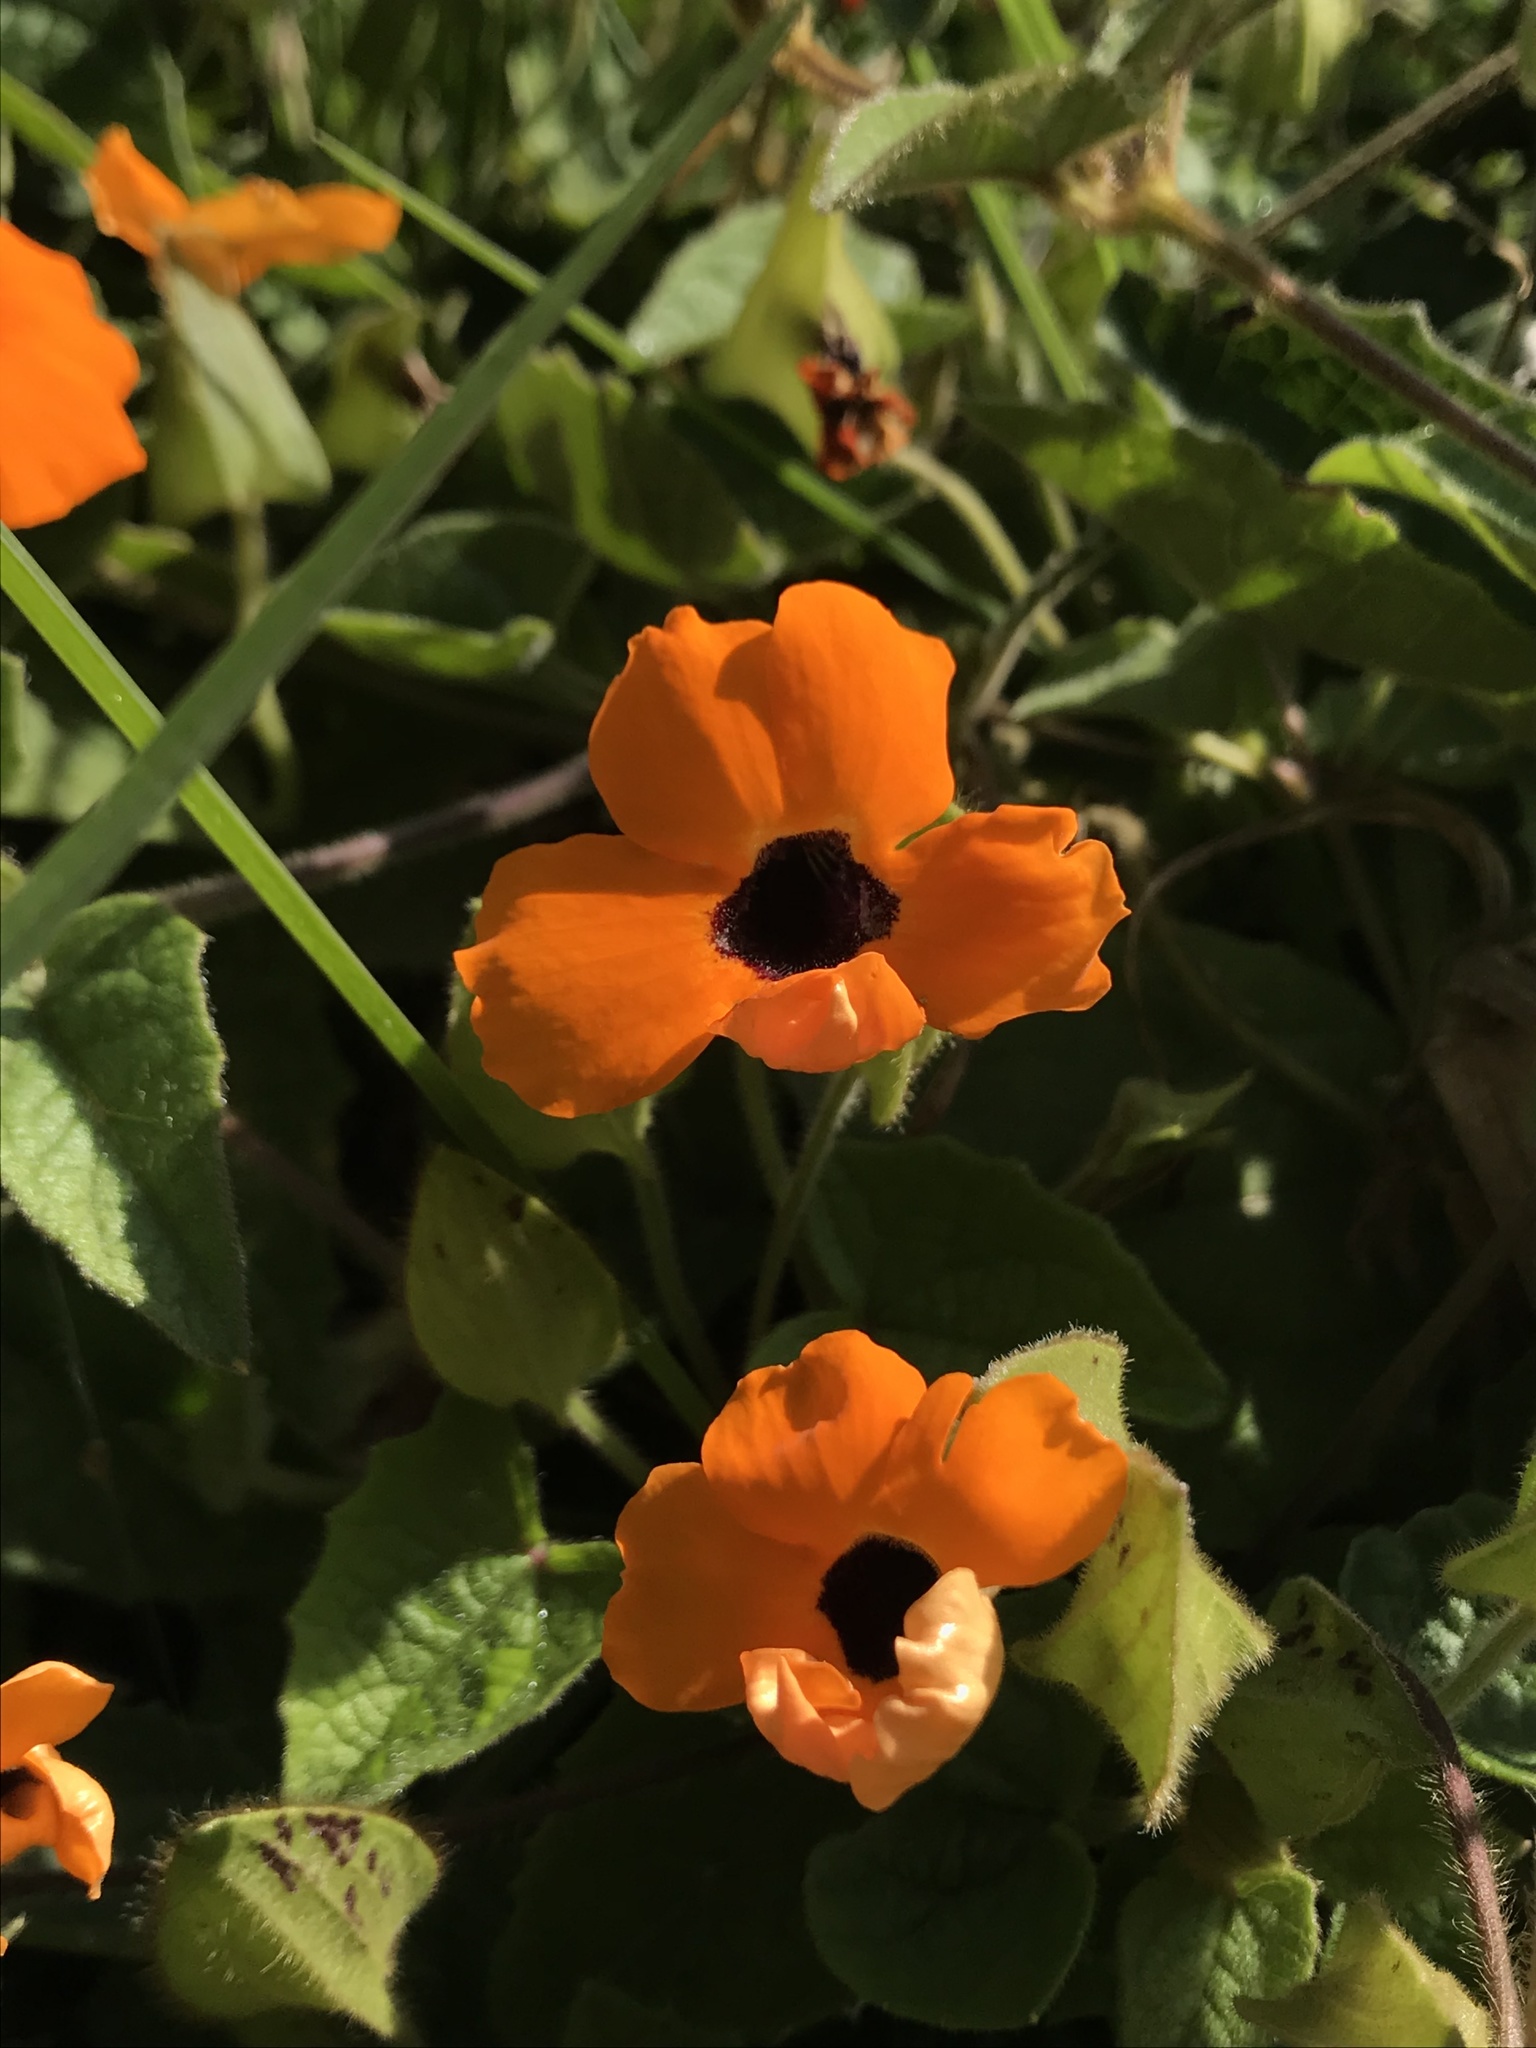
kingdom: Plantae
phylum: Tracheophyta
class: Magnoliopsida
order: Lamiales
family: Acanthaceae
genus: Thunbergia
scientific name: Thunbergia alata
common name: Blackeyed susan vine
